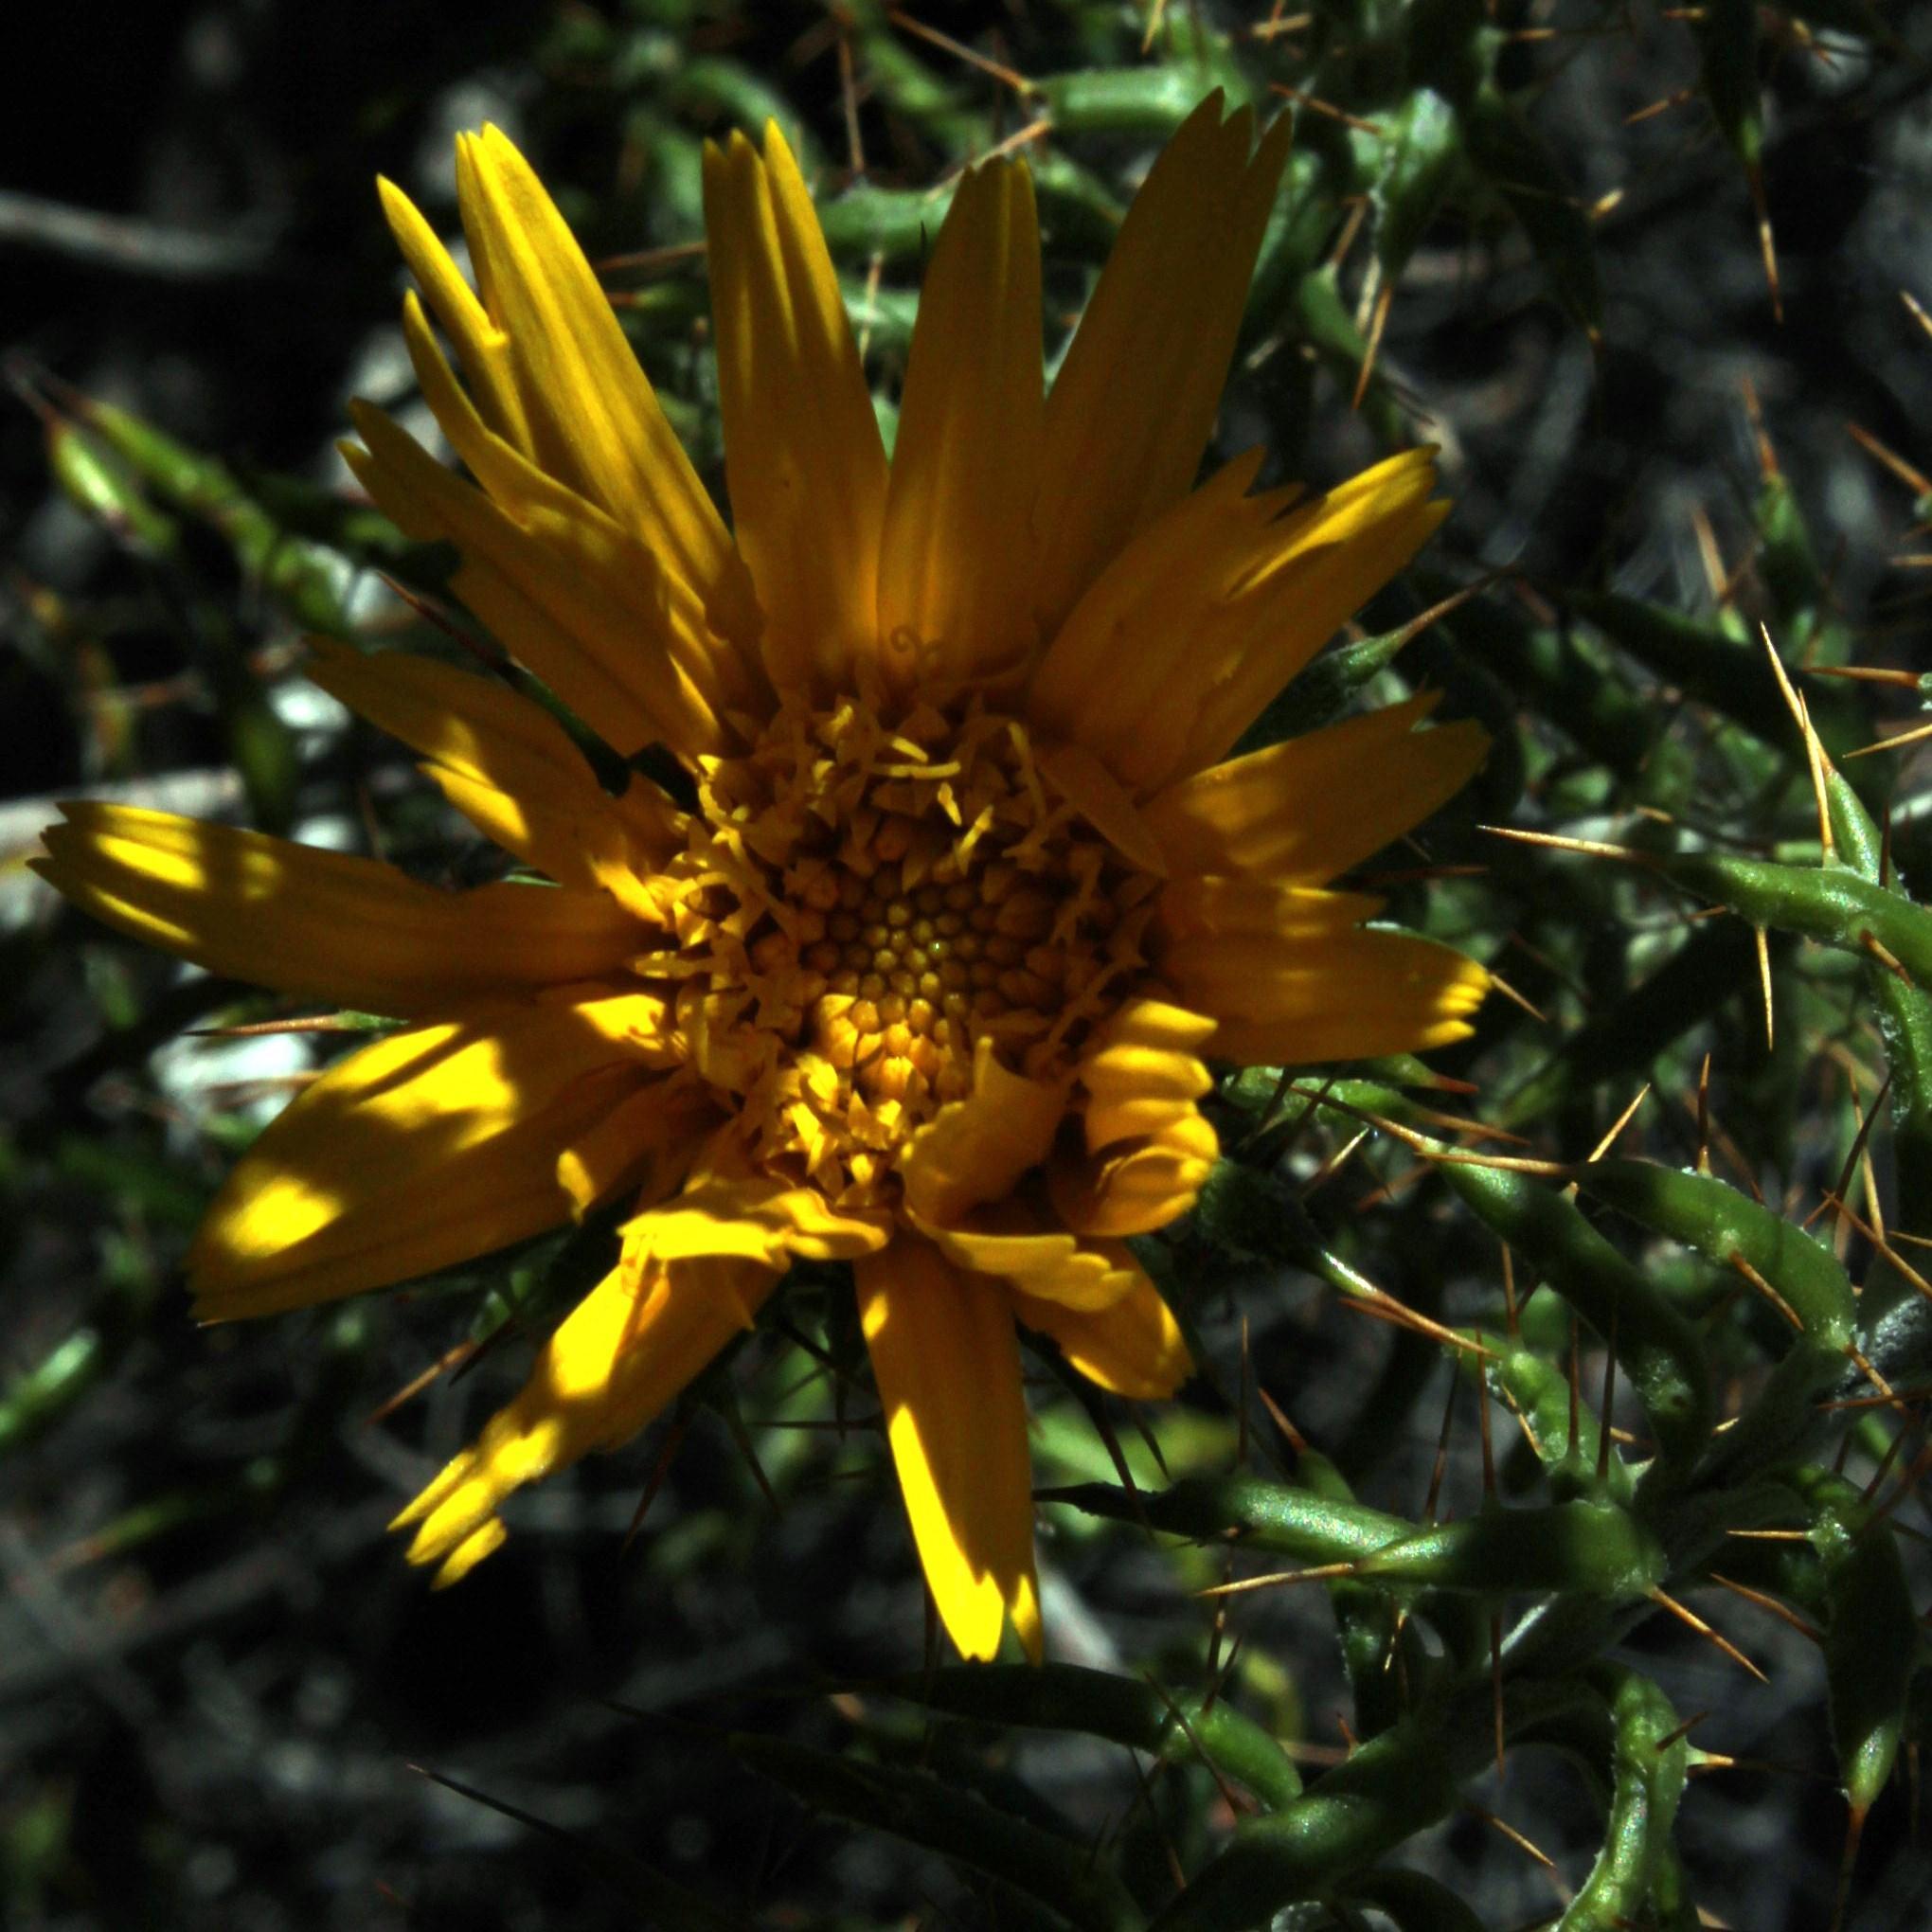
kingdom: Plantae
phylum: Tracheophyta
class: Magnoliopsida
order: Asterales
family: Asteraceae
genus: Berkheya
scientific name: Berkheya angustifolia
